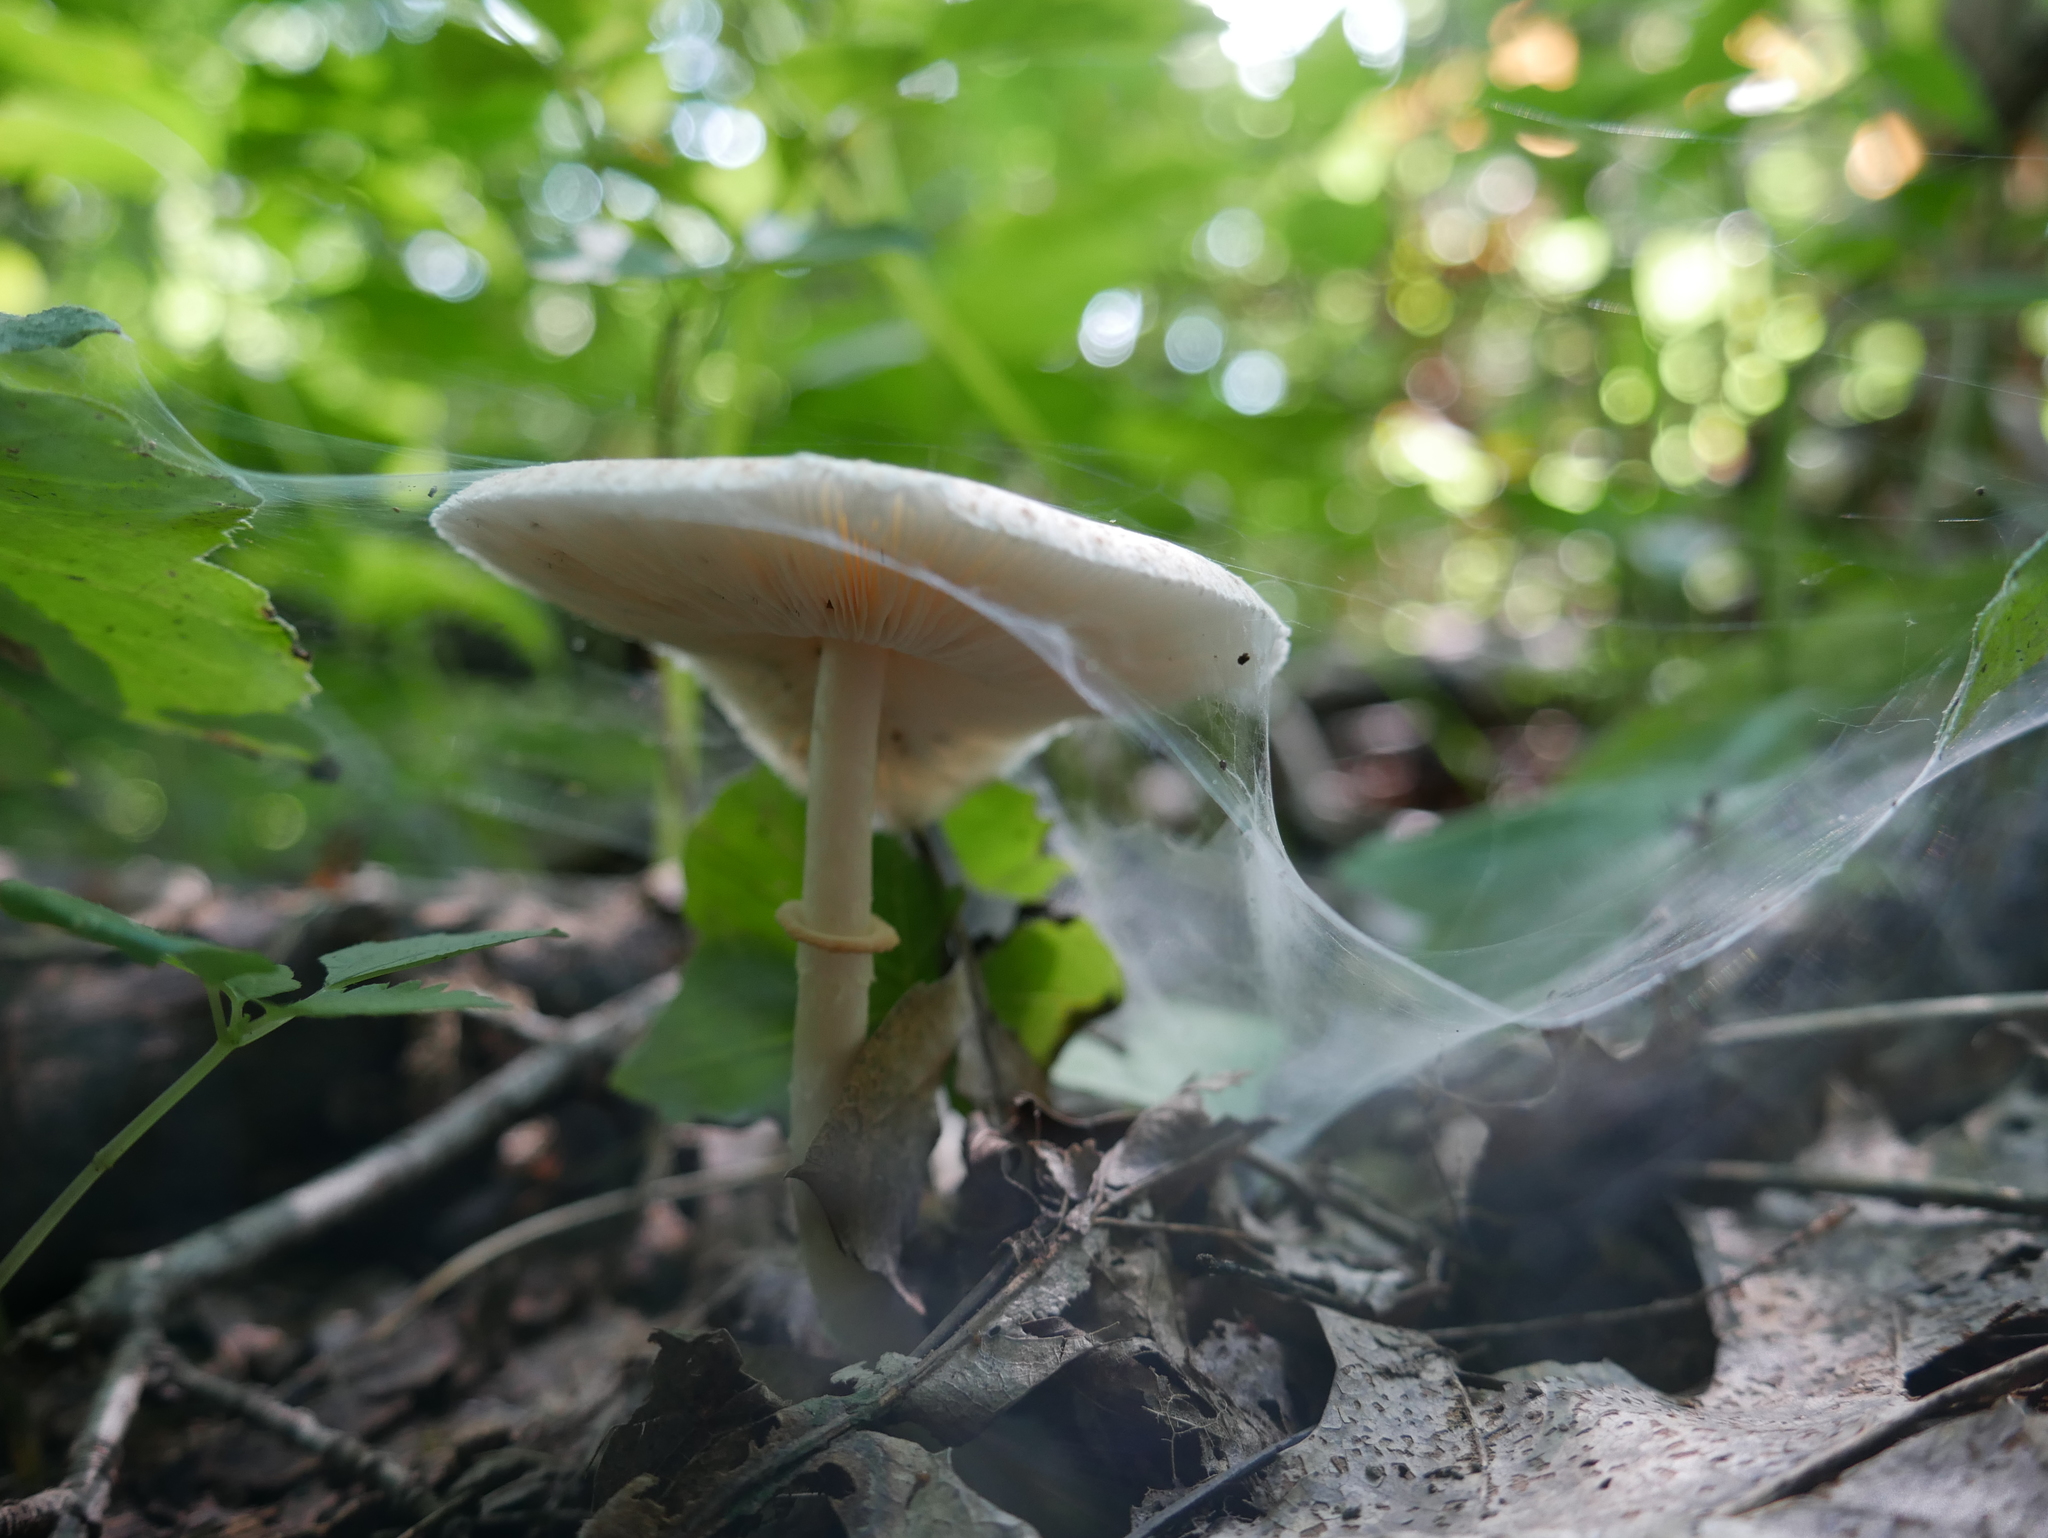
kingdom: Fungi
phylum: Basidiomycota
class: Agaricomycetes
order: Agaricales
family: Agaricaceae
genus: Leucoagaricus
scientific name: Leucoagaricus rubrotinctus
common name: Ruby dapperling
